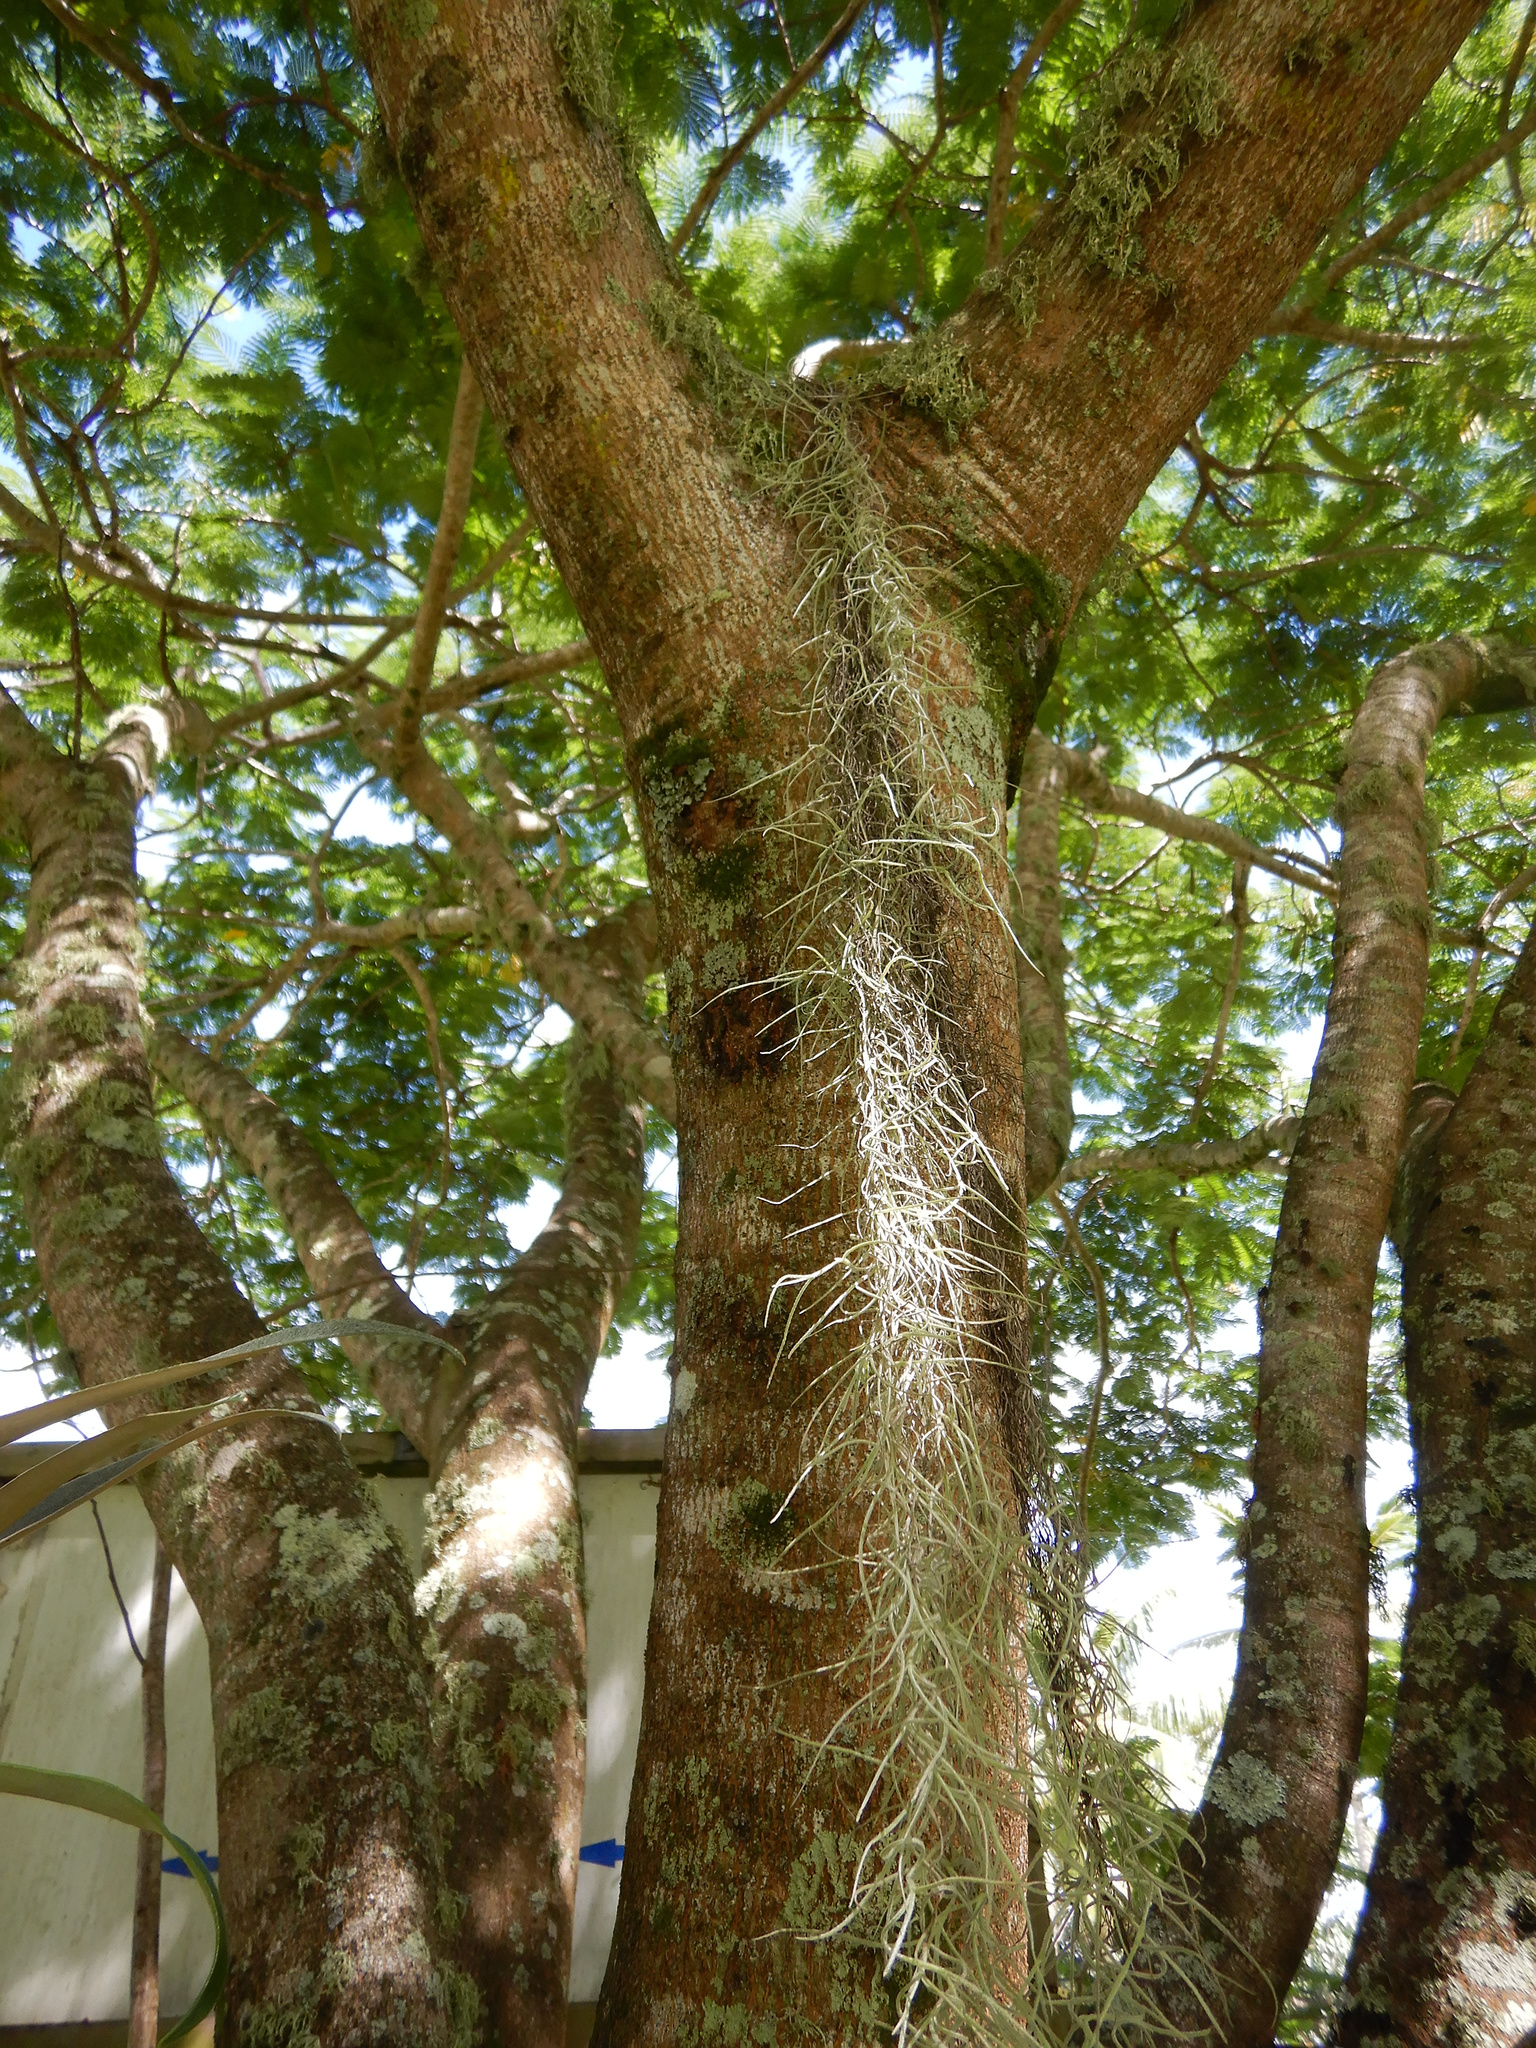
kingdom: Plantae
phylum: Tracheophyta
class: Liliopsida
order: Poales
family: Bromeliaceae
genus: Tillandsia
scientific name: Tillandsia usneoides
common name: Spanish moss
